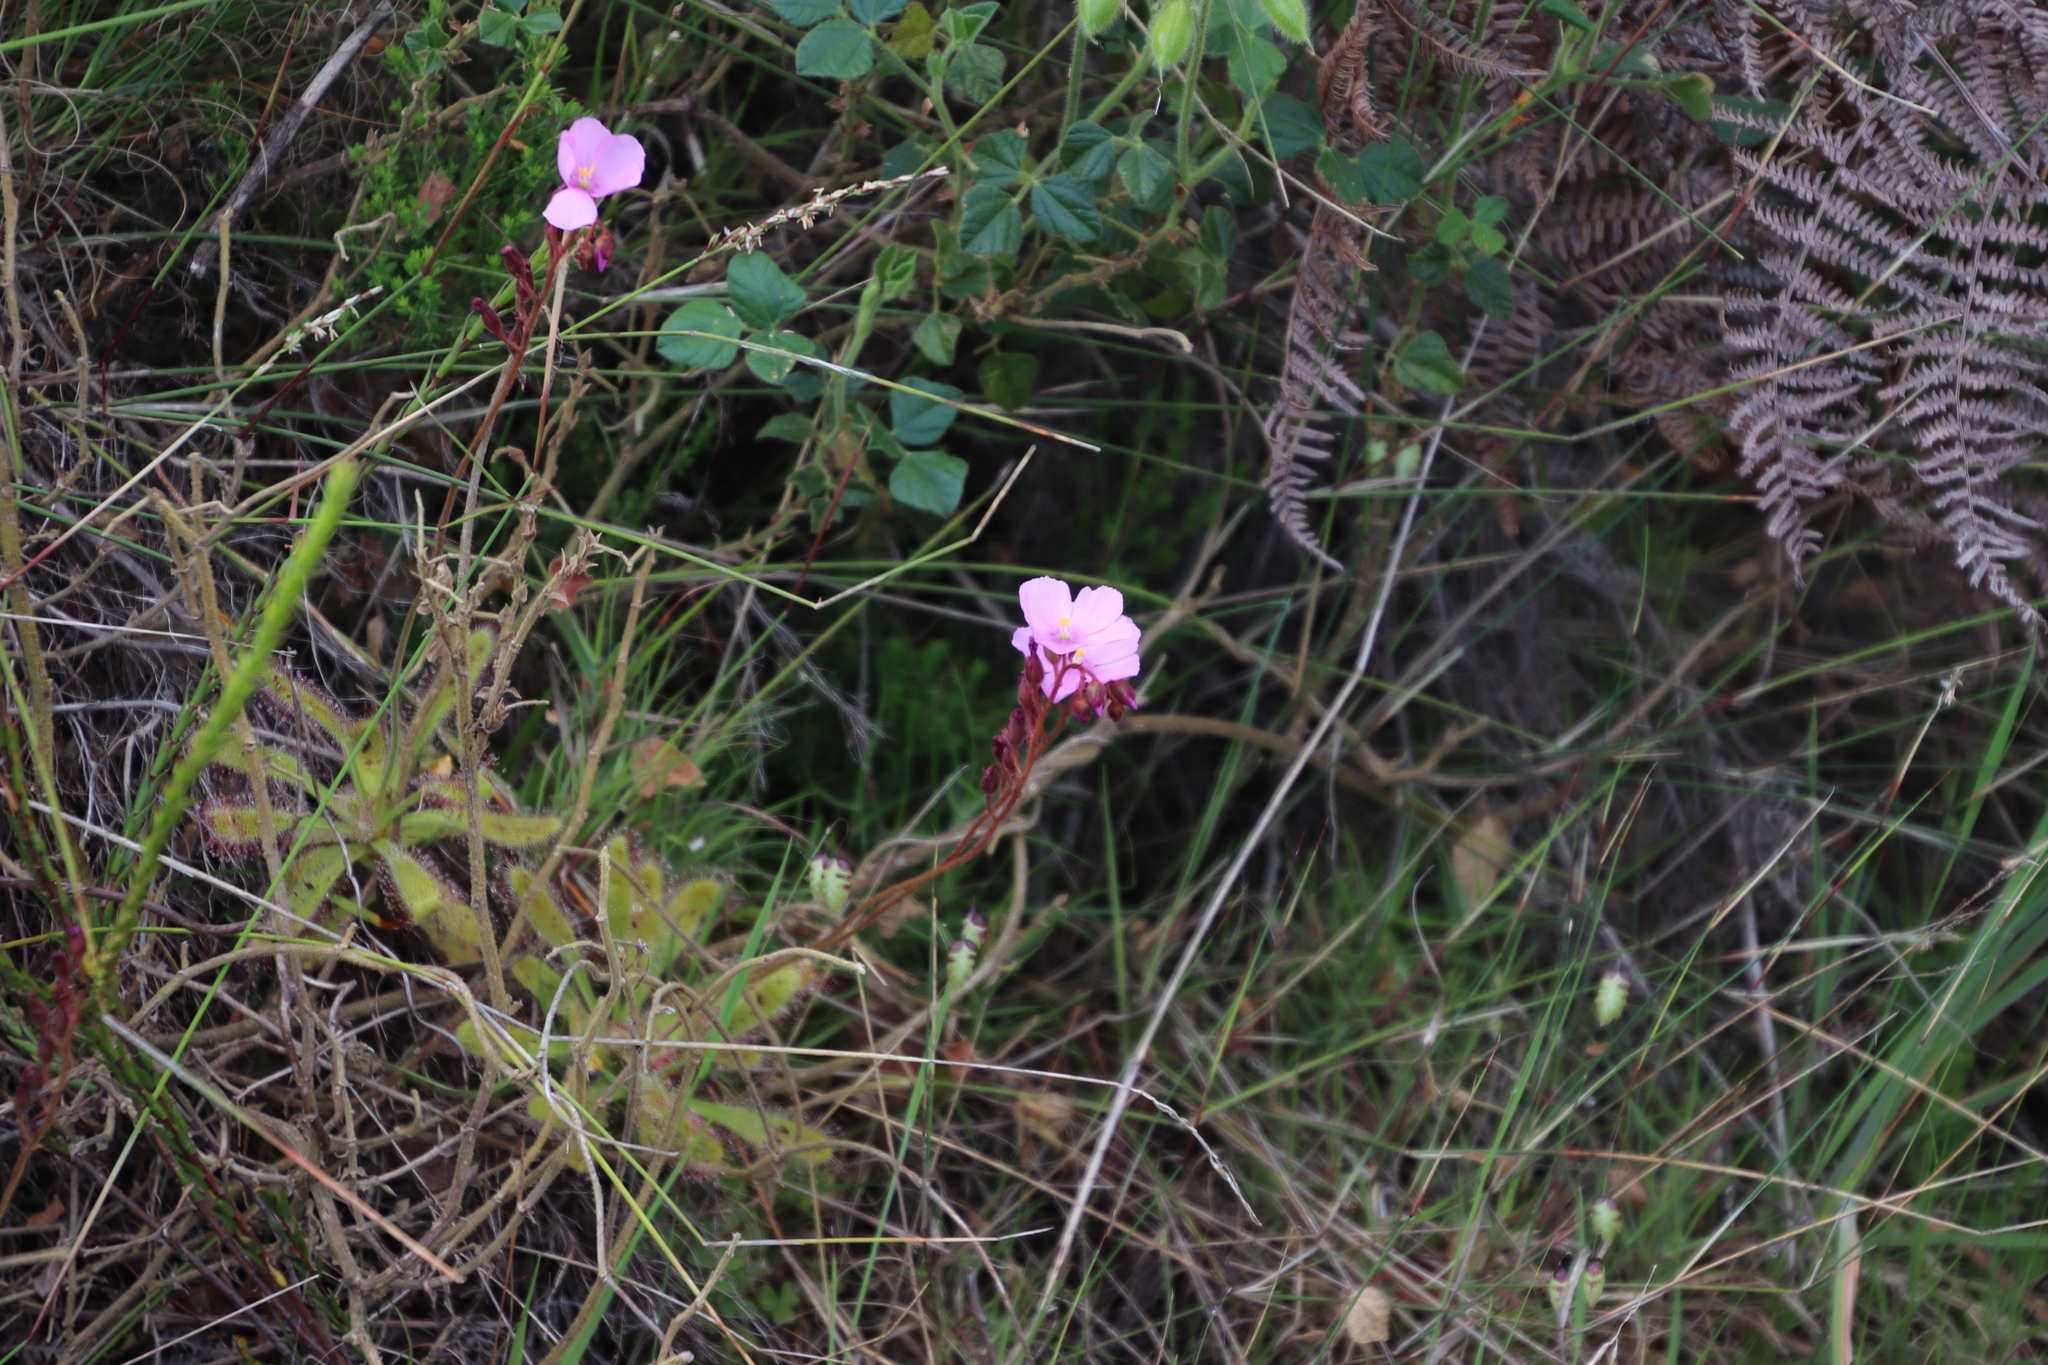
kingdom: Plantae
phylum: Tracheophyta
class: Magnoliopsida
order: Caryophyllales
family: Droseraceae
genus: Drosera
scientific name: Drosera hilaris
